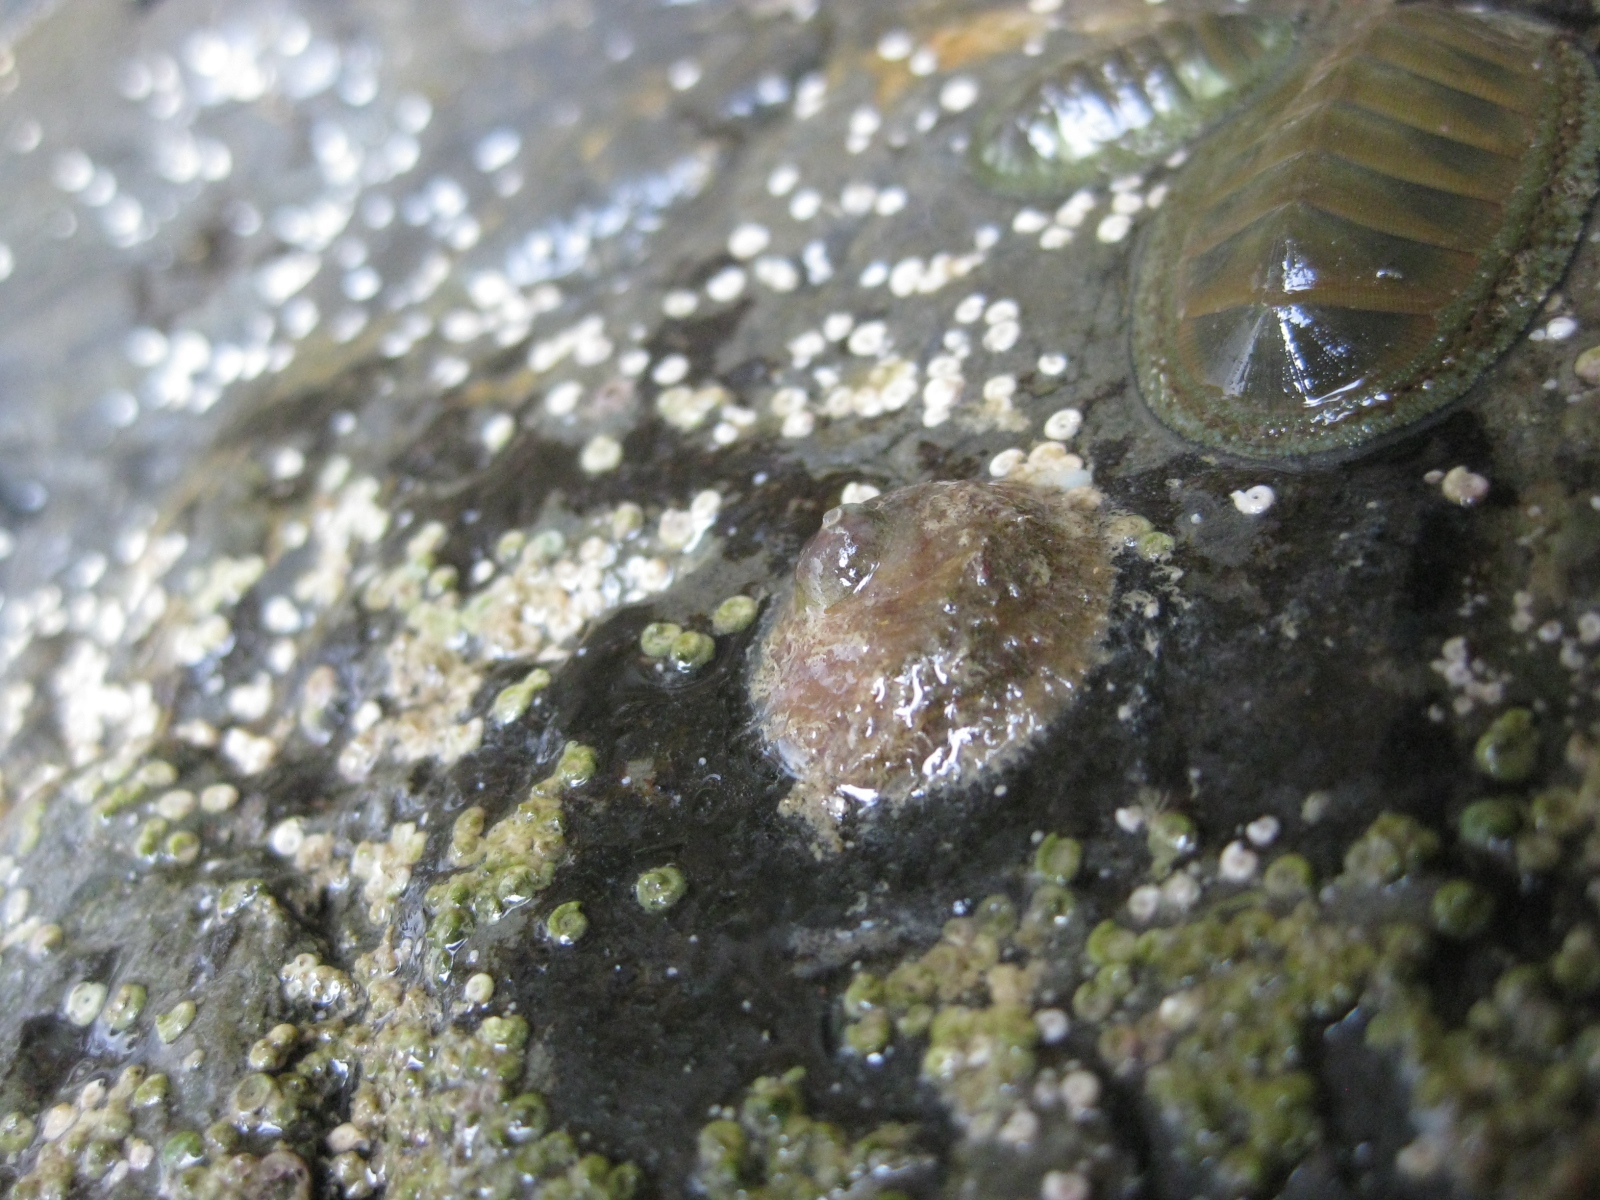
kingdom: Animalia
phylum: Mollusca
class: Gastropoda
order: Littorinimorpha
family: Calyptraeidae
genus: Sigapatella
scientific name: Sigapatella novaezelandiae
